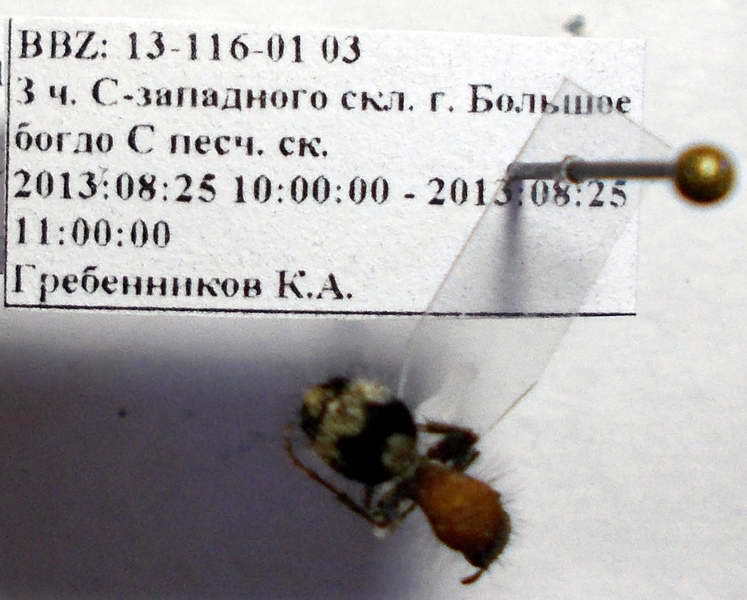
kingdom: Animalia
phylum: Arthropoda
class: Insecta
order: Hymenoptera
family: Mutillidae
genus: Dasylabris
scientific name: Dasylabris regalis
